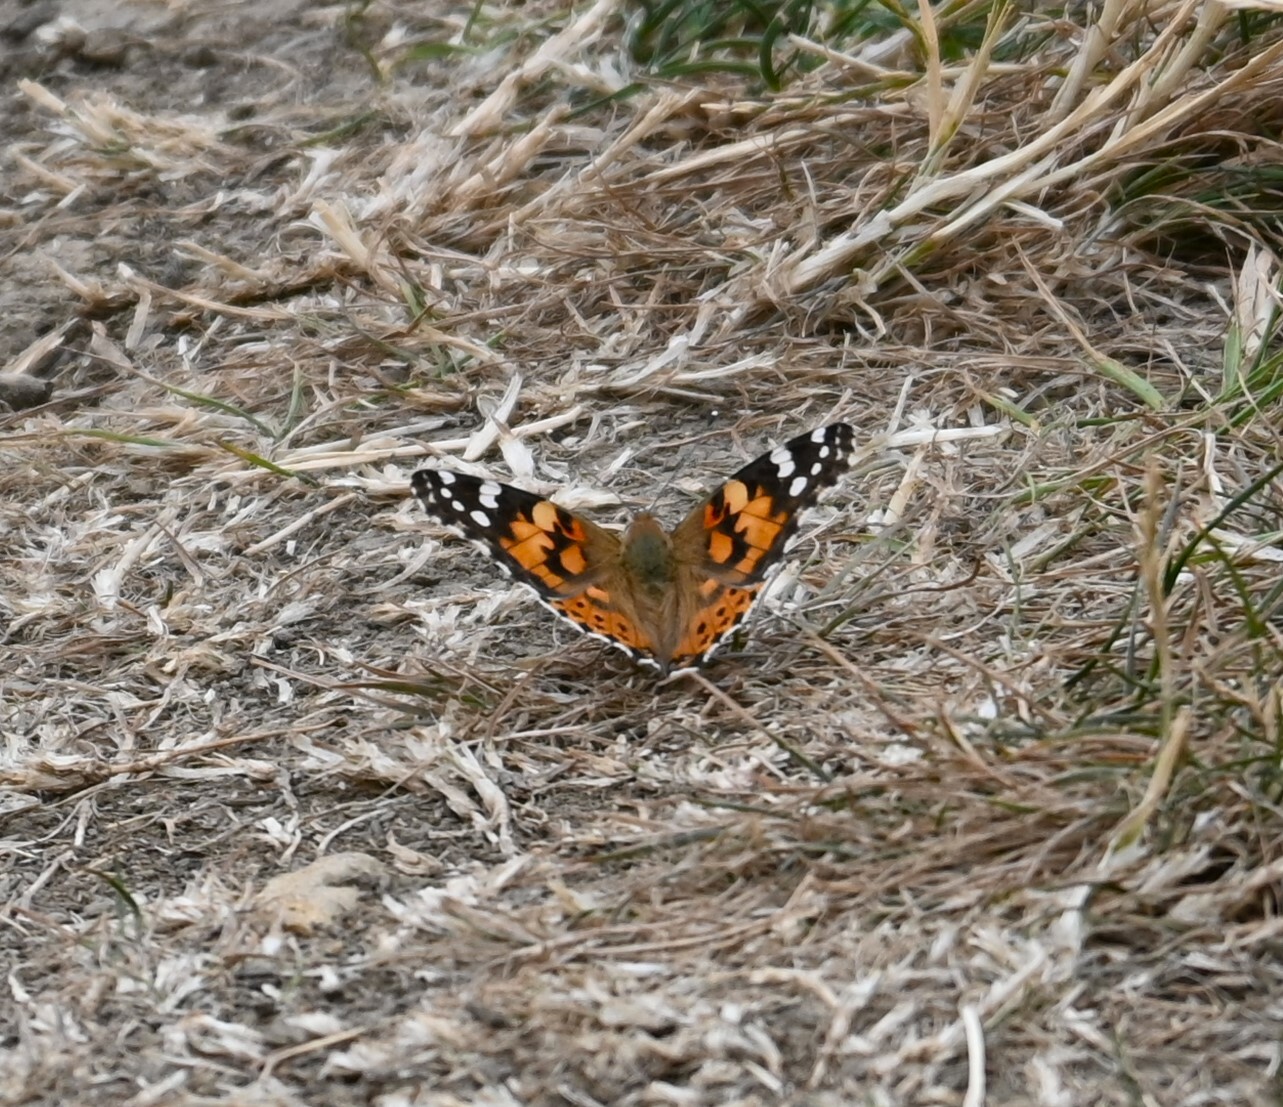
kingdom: Animalia
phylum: Arthropoda
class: Insecta
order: Lepidoptera
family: Nymphalidae
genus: Vanessa
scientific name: Vanessa cardui
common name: Painted lady
